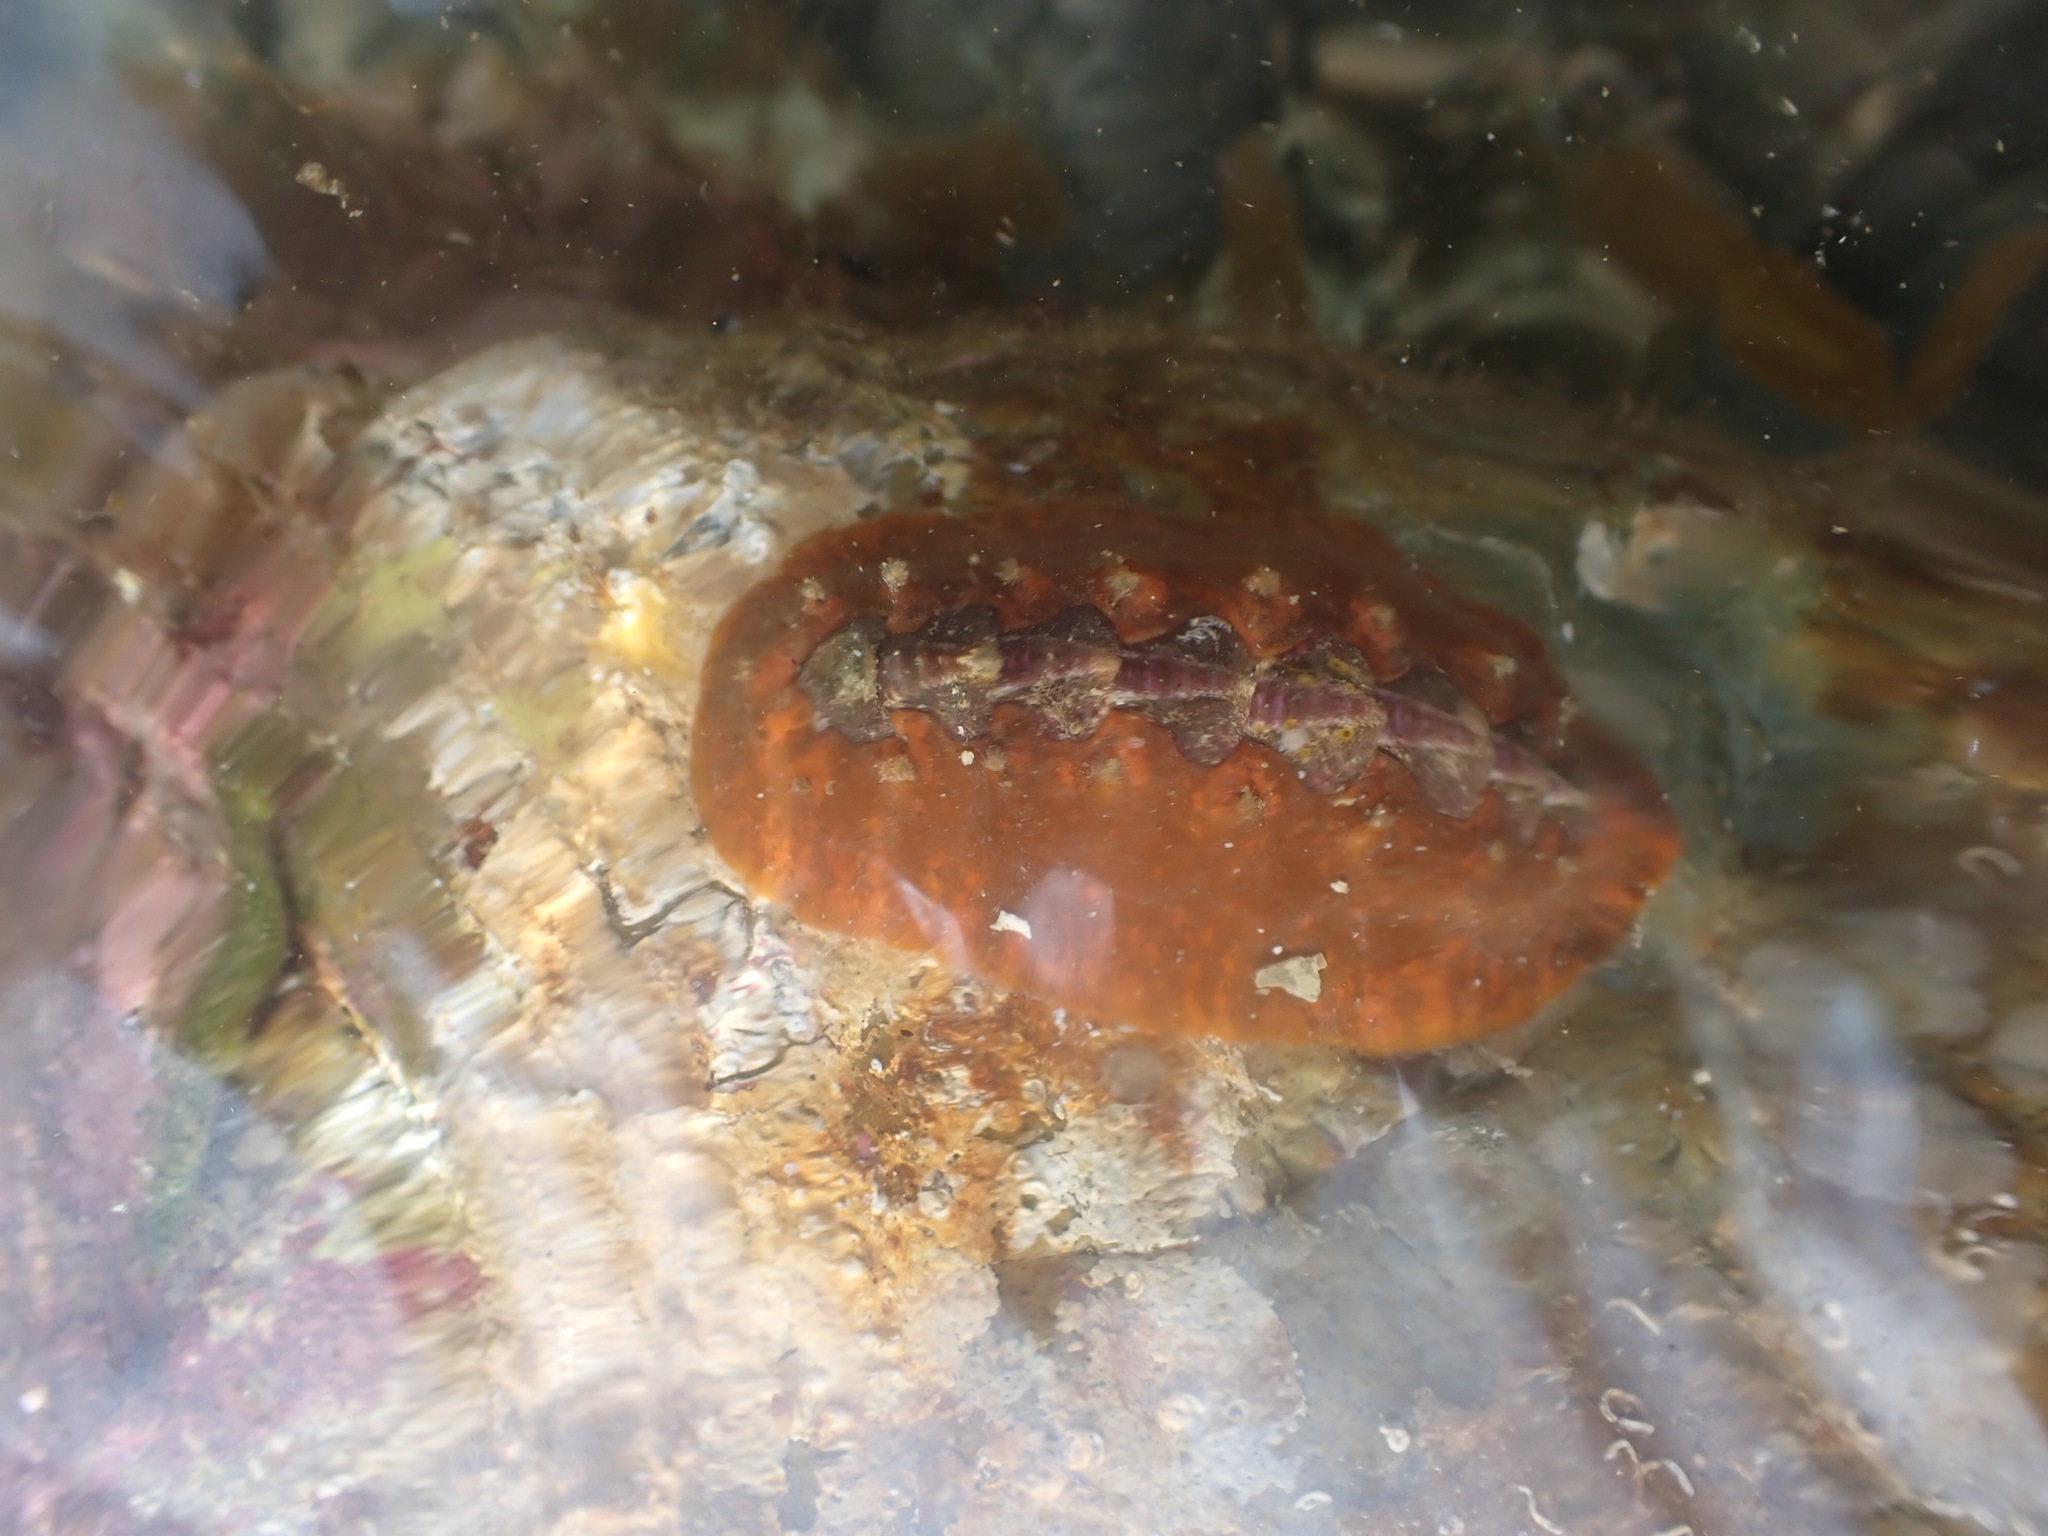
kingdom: Animalia
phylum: Mollusca
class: Polyplacophora
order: Chitonida
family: Acanthochitonidae
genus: Notoplax
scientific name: Notoplax violacea
